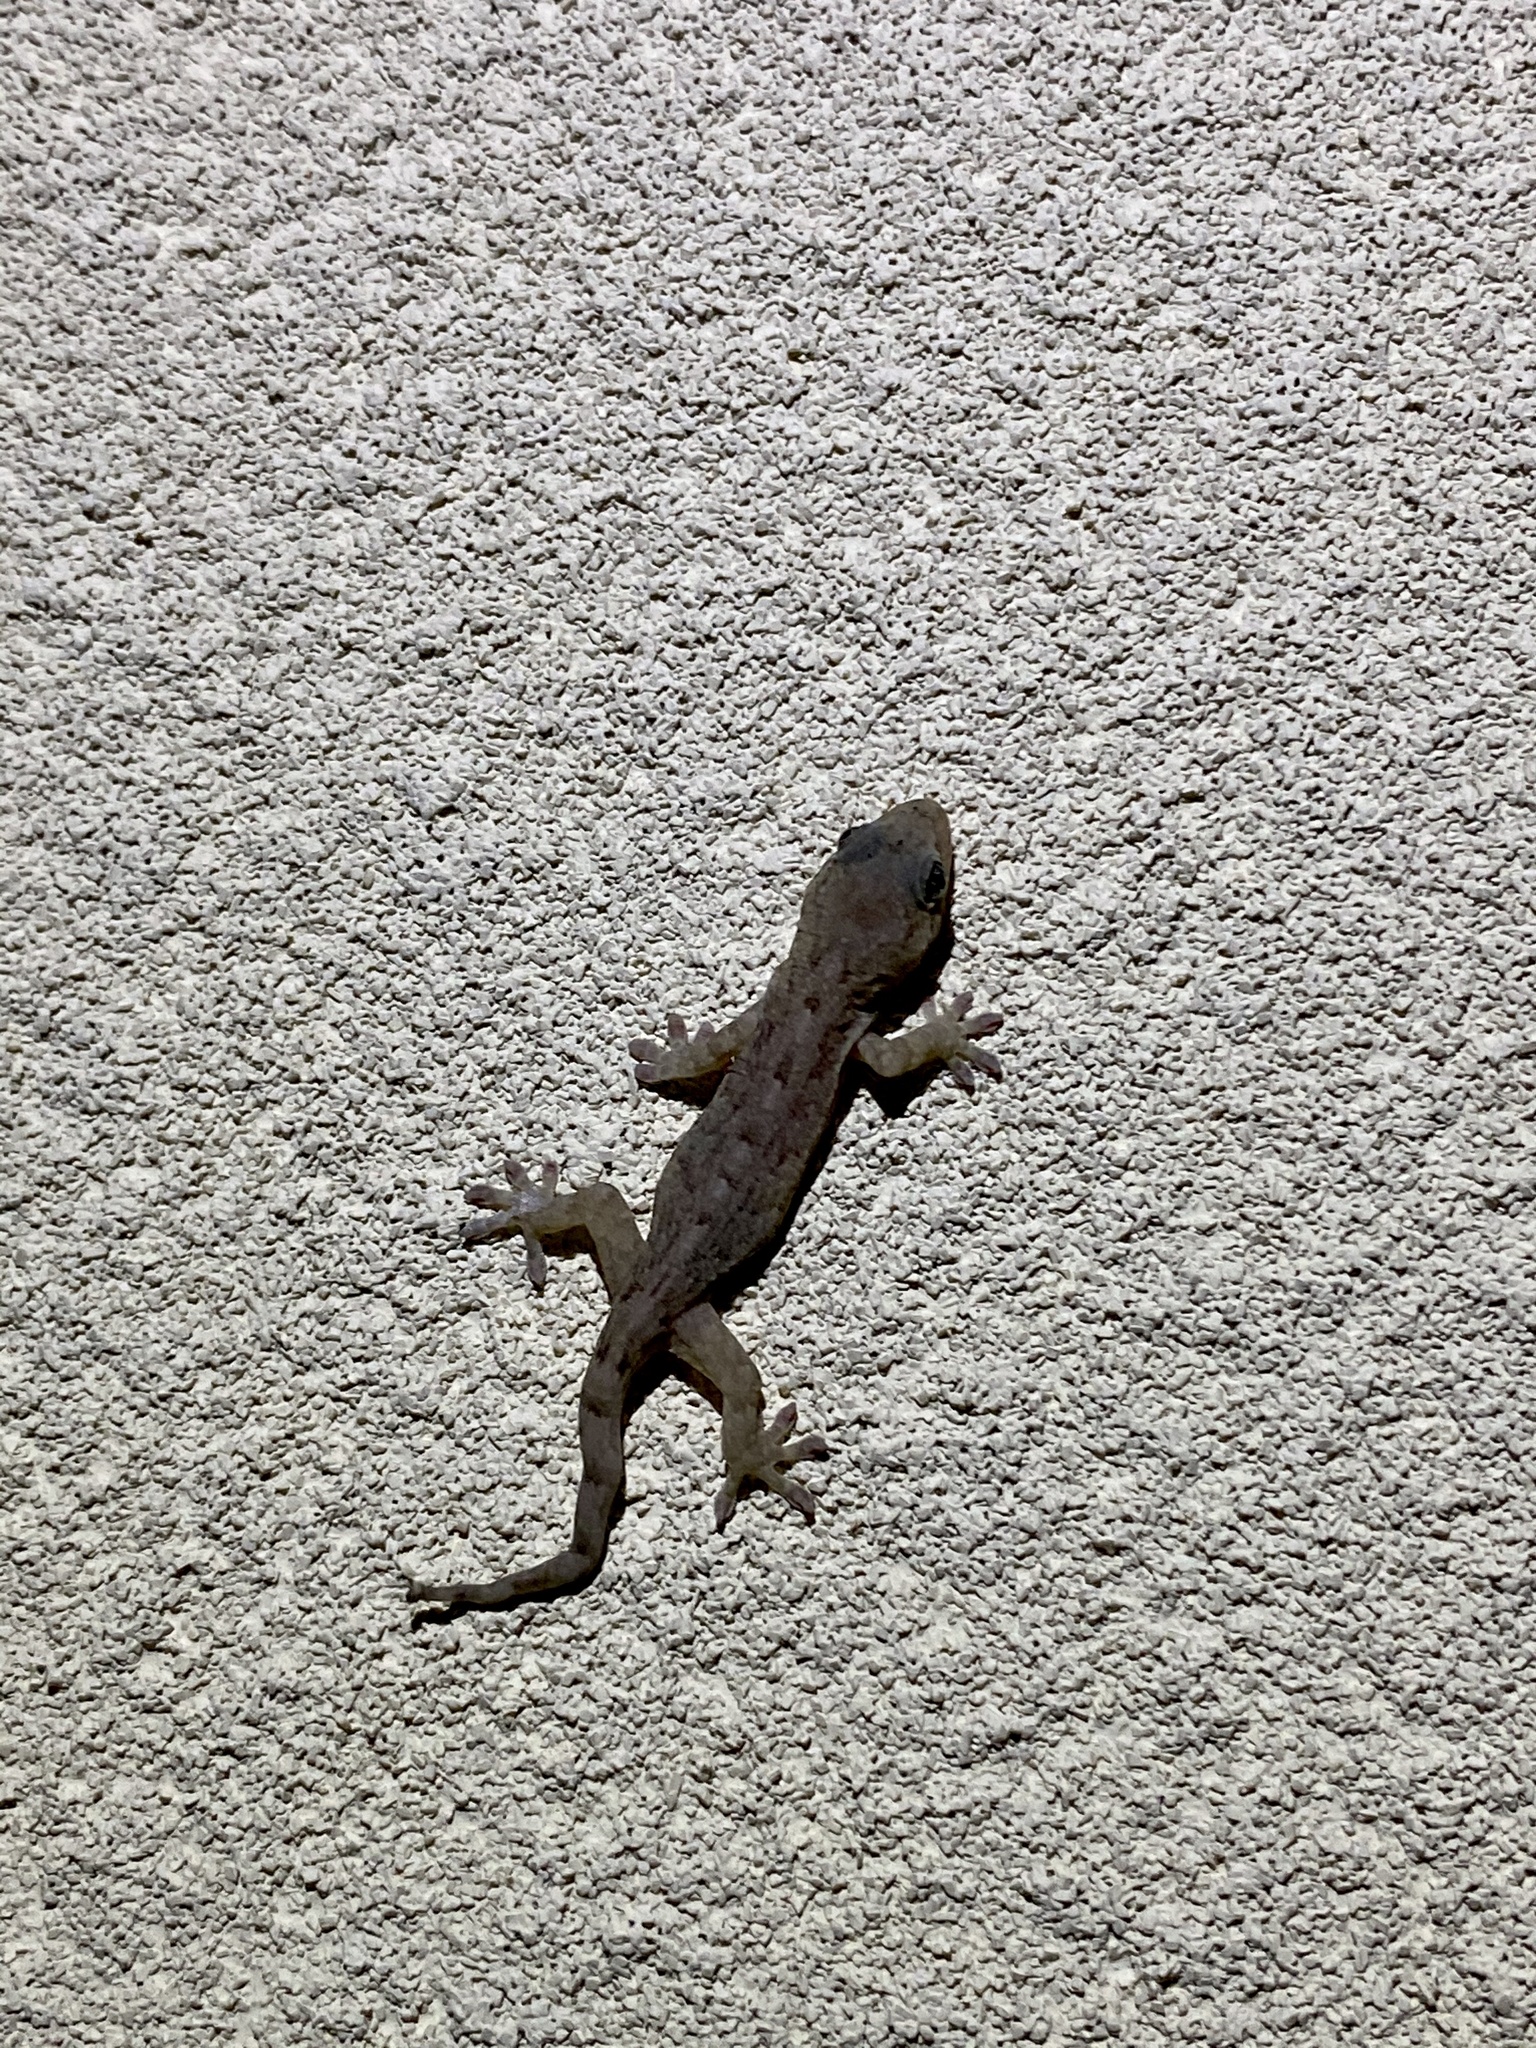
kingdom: Animalia
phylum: Chordata
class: Squamata
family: Gekkonidae
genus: Gekko
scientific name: Gekko japonicus
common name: Schlegel's japanese gecko
